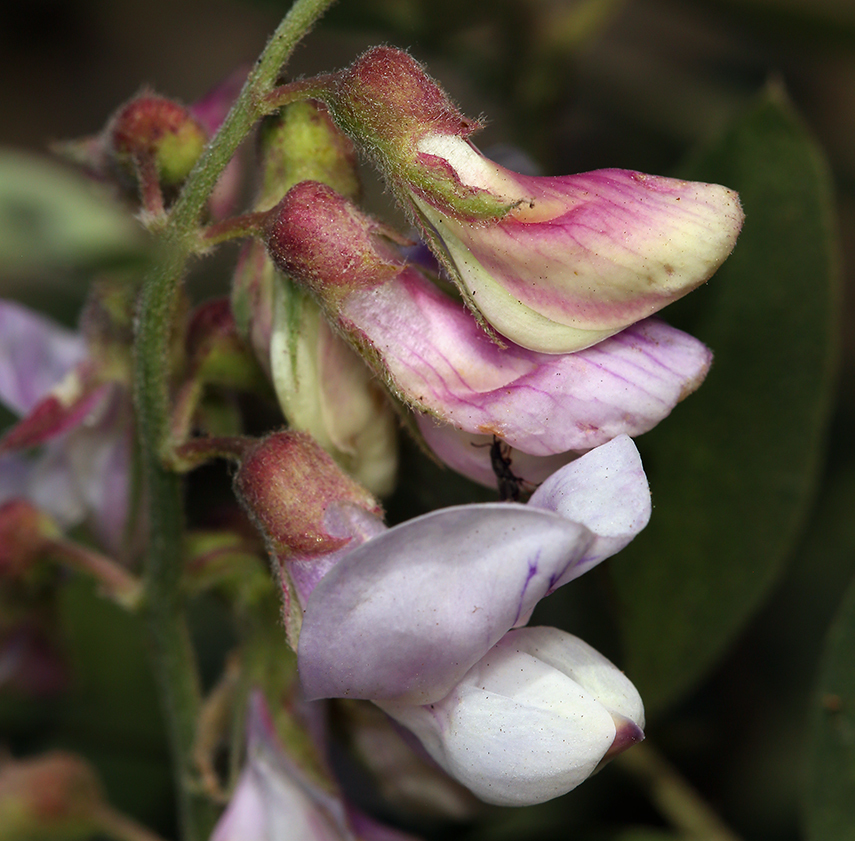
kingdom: Plantae
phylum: Tracheophyta
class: Magnoliopsida
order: Fabales
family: Fabaceae
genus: Lathyrus
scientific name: Lathyrus vestitus
